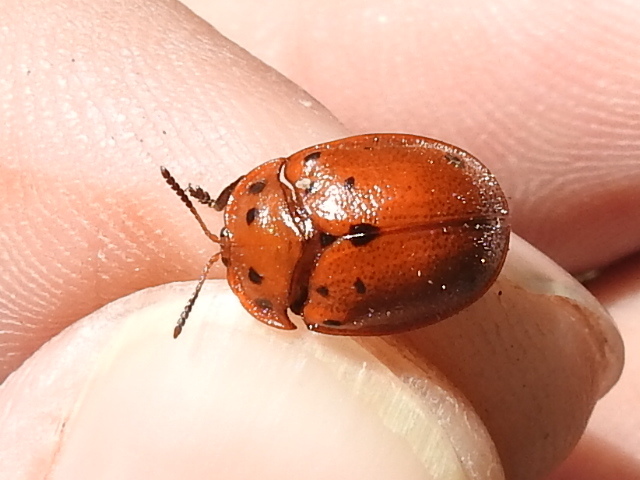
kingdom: Animalia
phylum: Arthropoda
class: Insecta
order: Coleoptera
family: Chrysomelidae
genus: Chelymorpha
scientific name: Chelymorpha phytophagica
